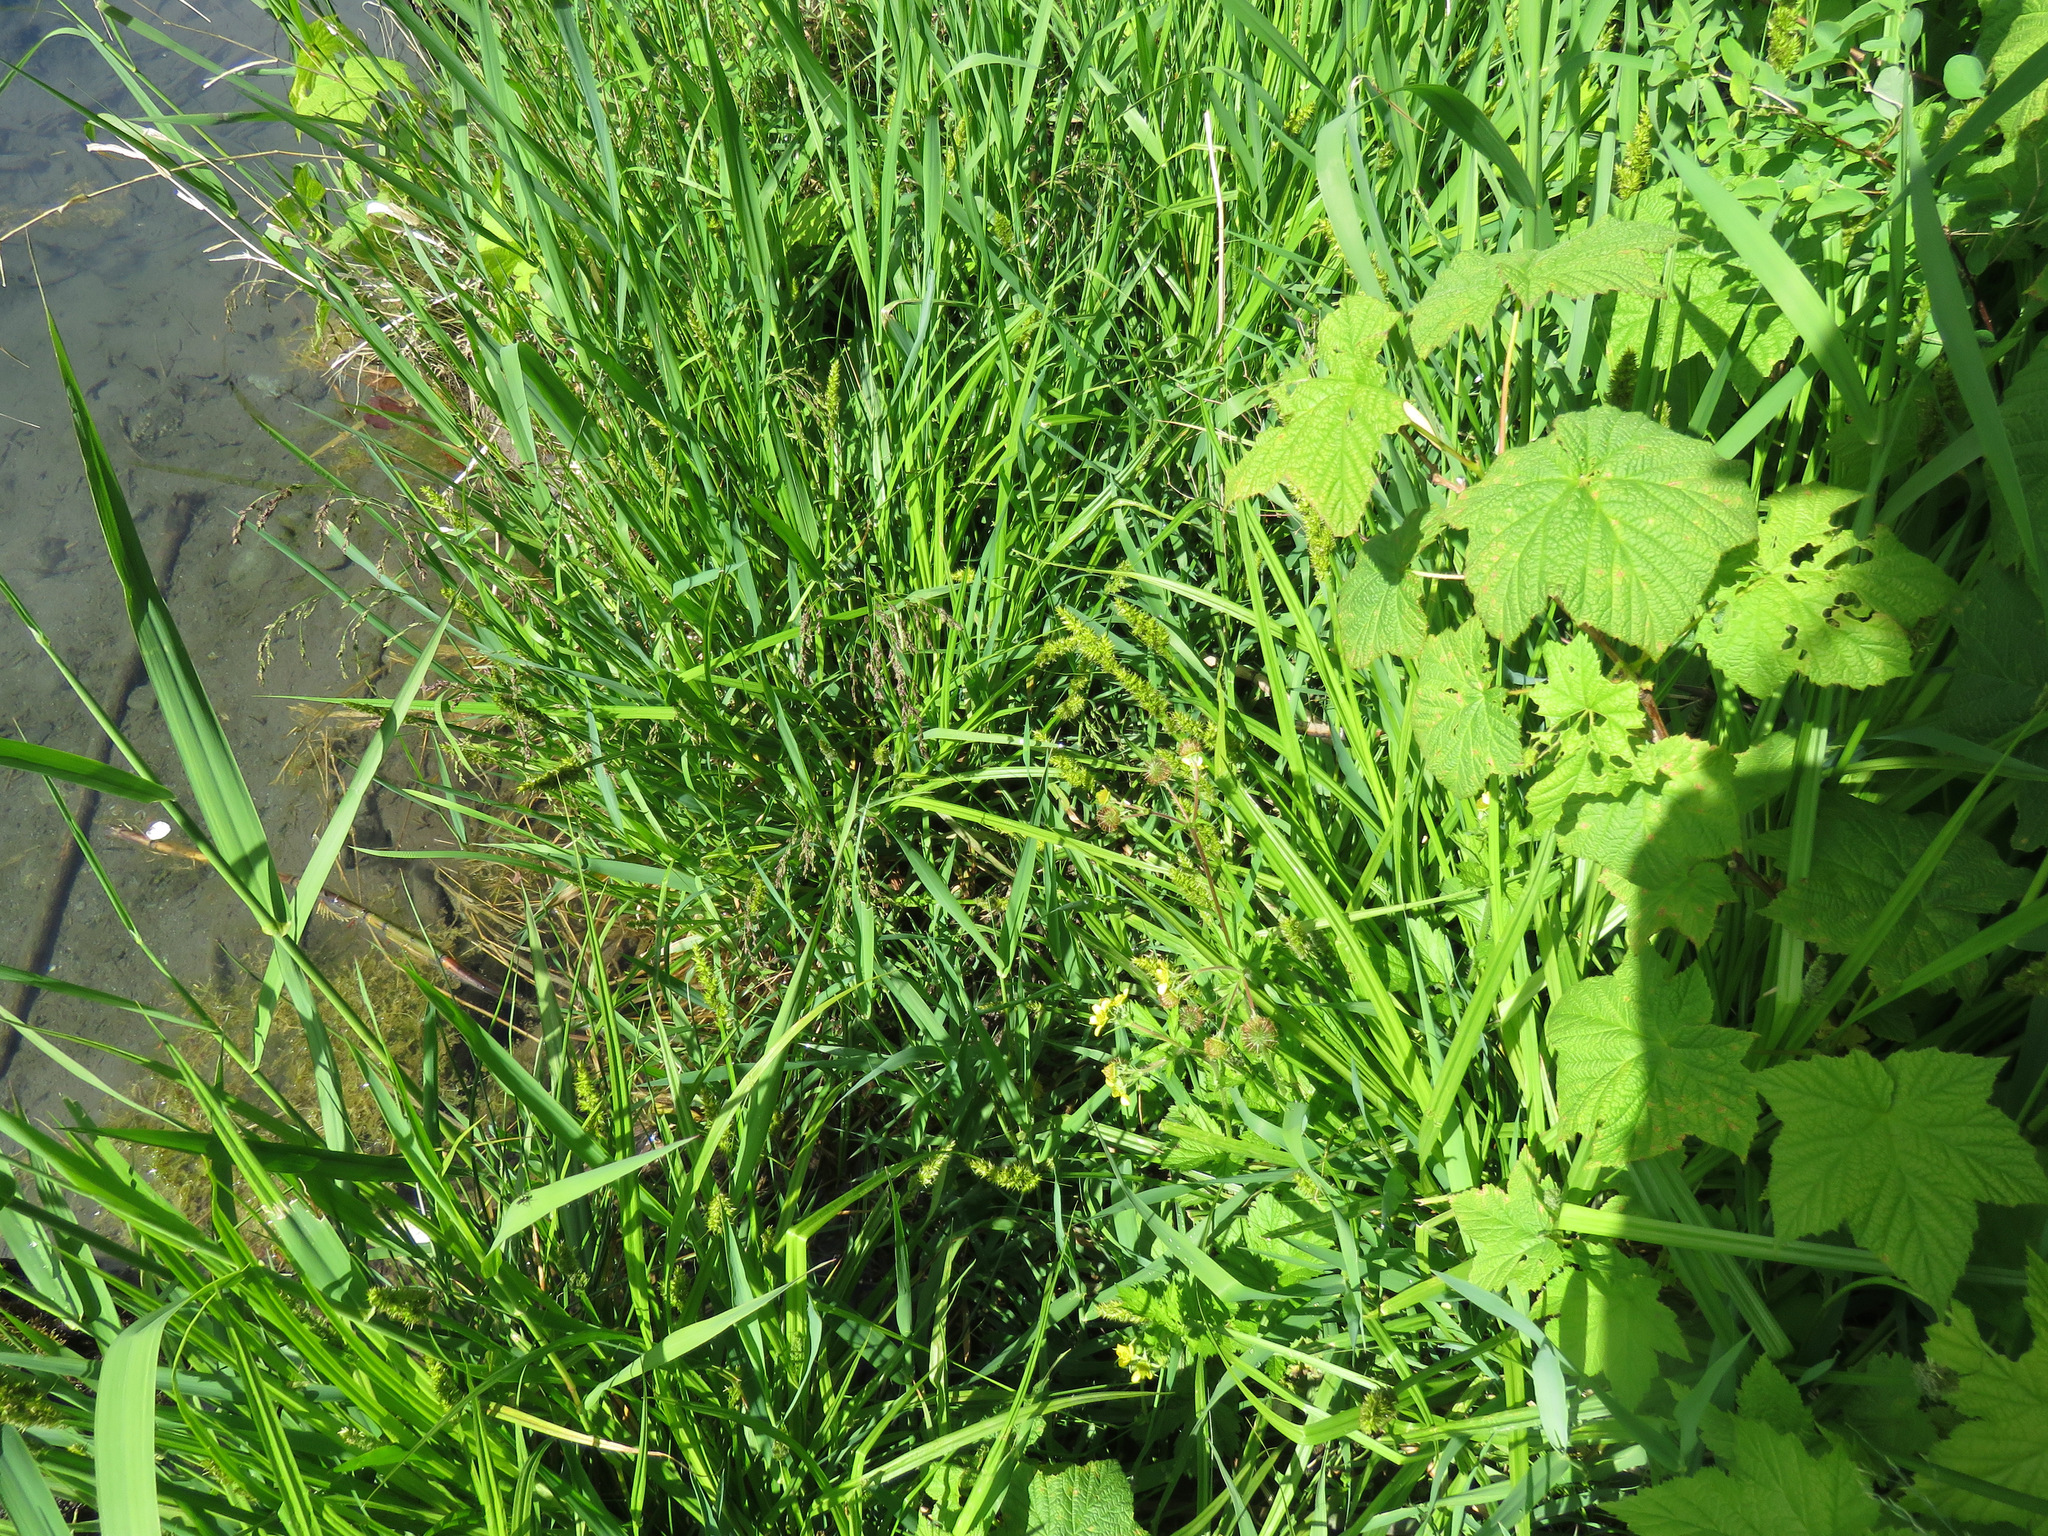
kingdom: Plantae
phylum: Tracheophyta
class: Liliopsida
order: Poales
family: Cyperaceae
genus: Carex
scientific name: Carex stipata
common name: Awl-fruited sedge
